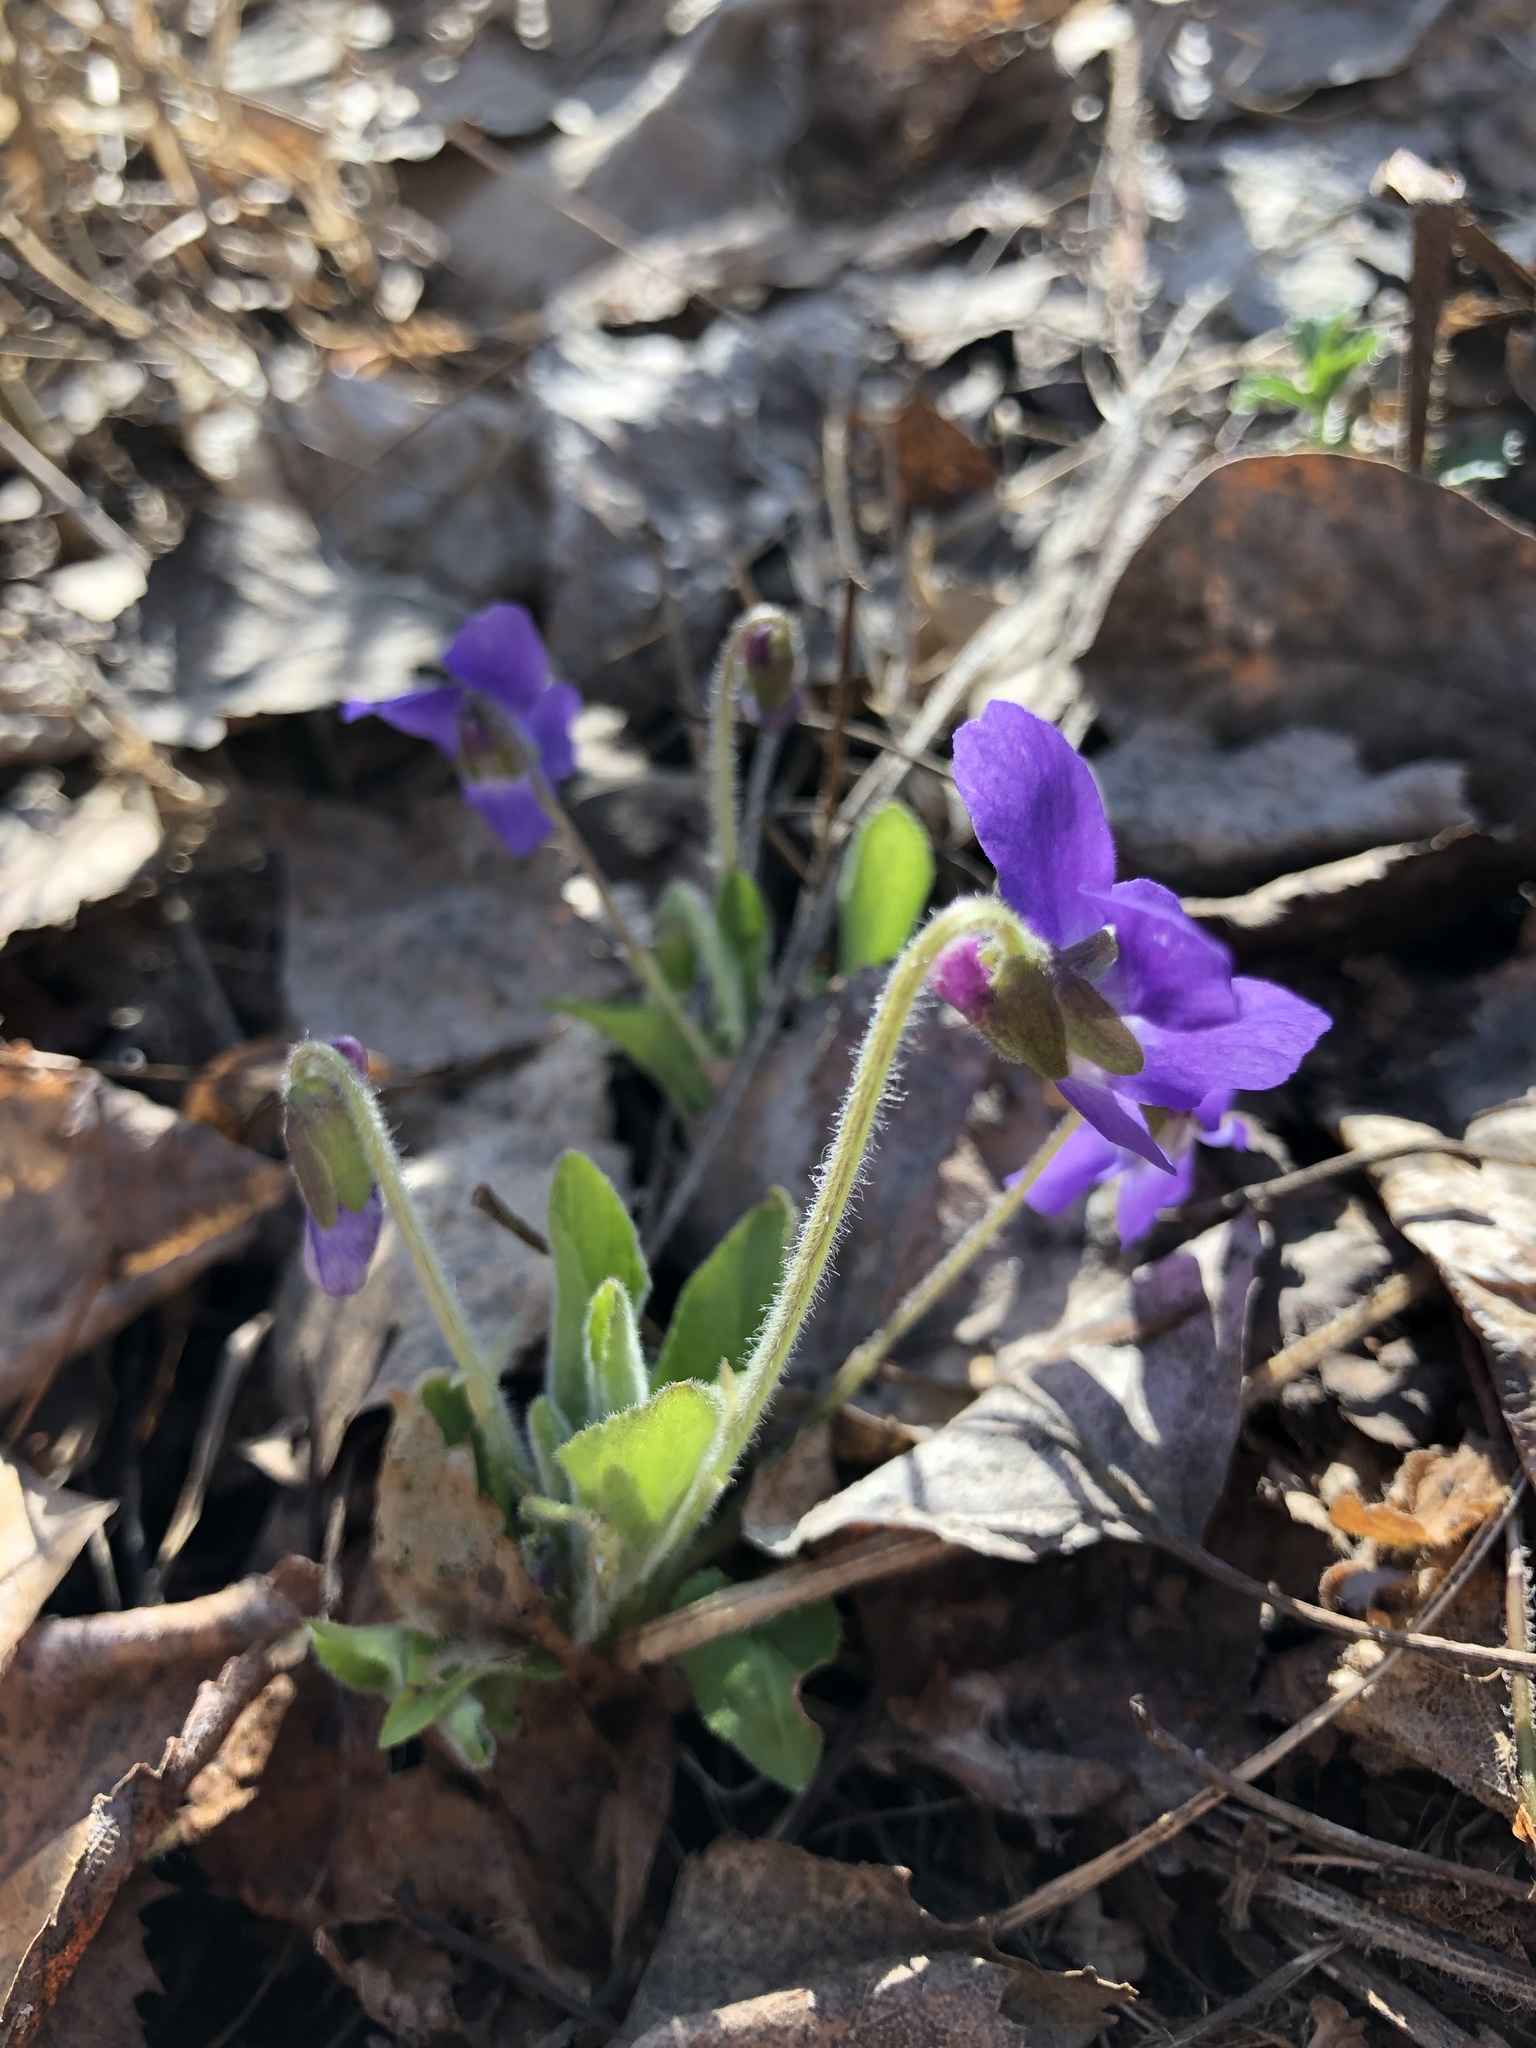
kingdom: Plantae
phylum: Tracheophyta
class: Magnoliopsida
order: Malpighiales
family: Violaceae
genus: Viola
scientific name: Viola hirta
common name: Hairy violet
